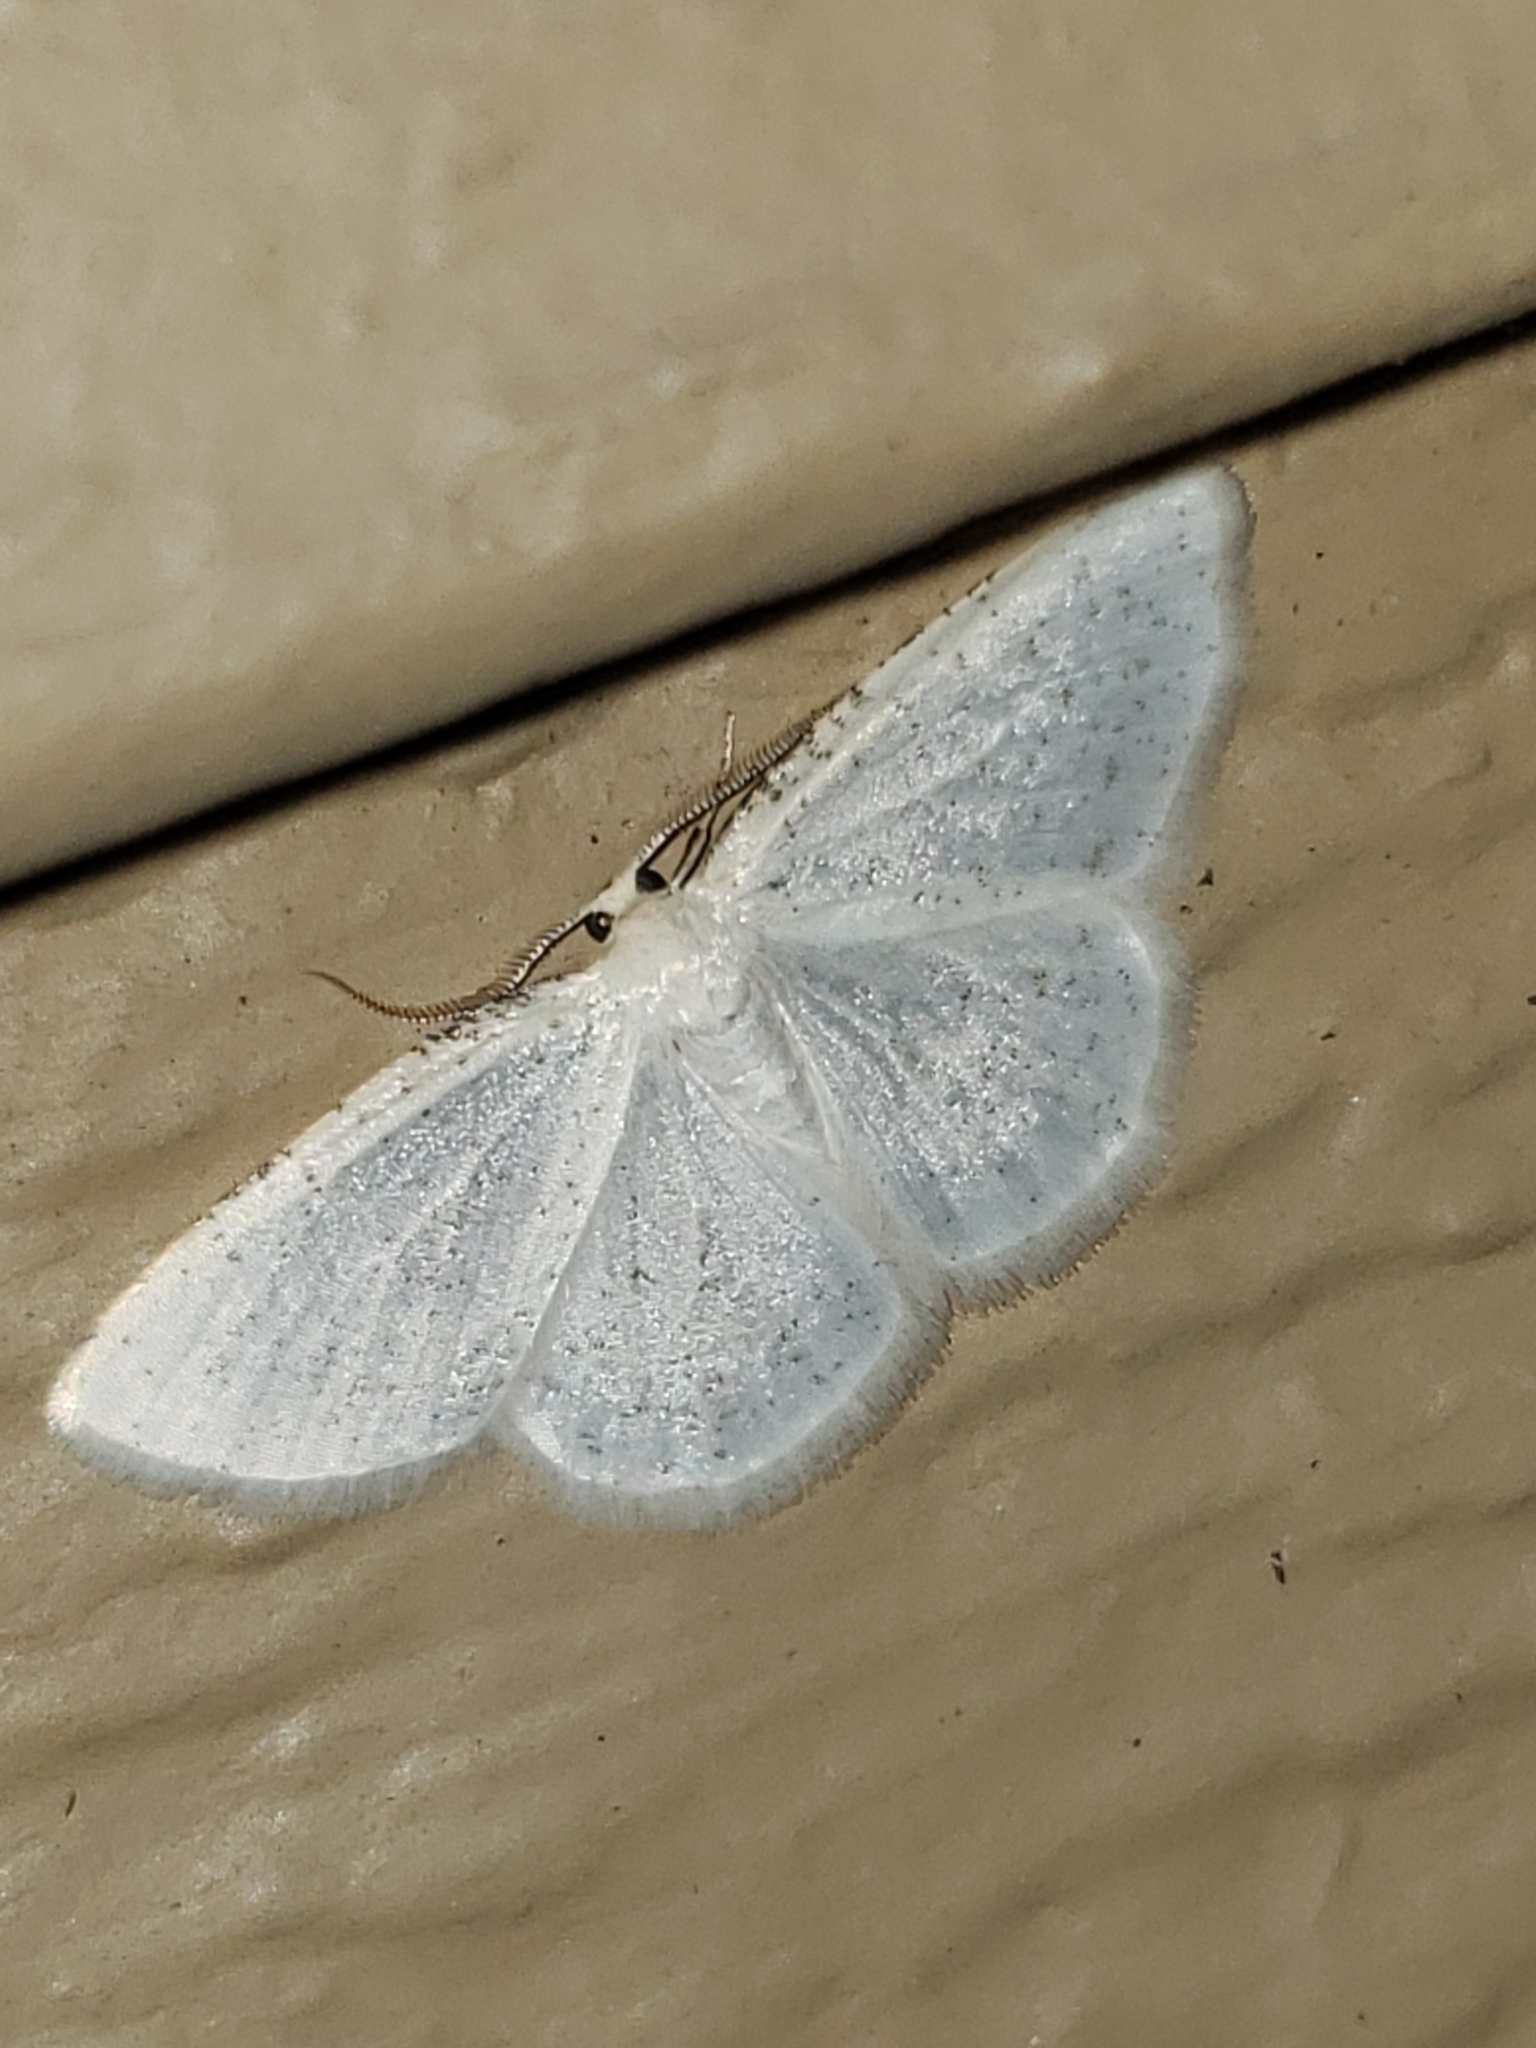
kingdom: Animalia
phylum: Arthropoda
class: Insecta
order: Lepidoptera
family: Geometridae
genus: Protitame
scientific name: Protitame virginalis
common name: Virgin moth
